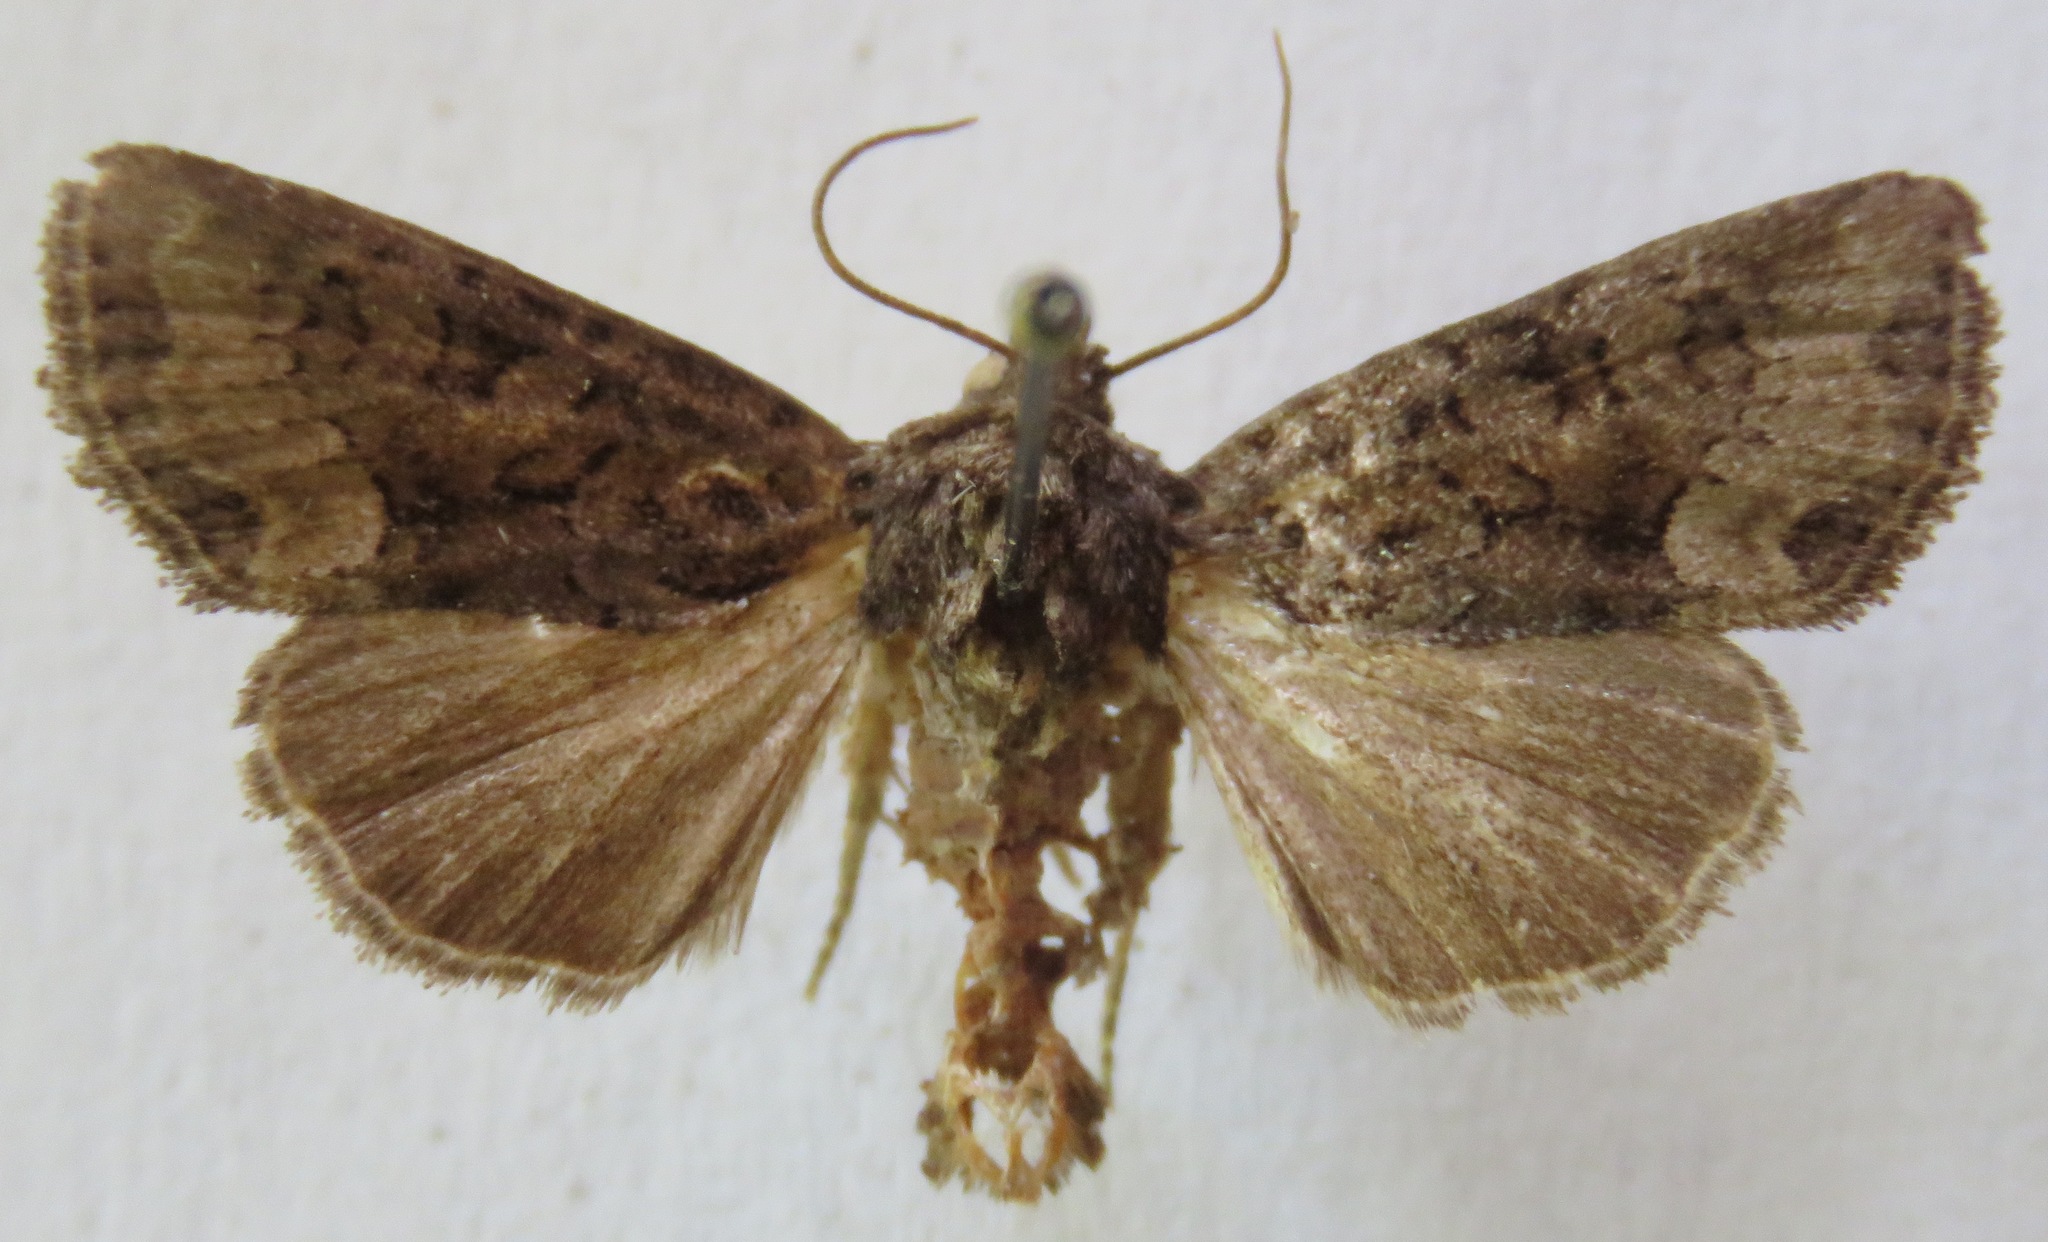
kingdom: Animalia
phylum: Arthropoda
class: Insecta
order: Lepidoptera
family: Noctuidae
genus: Oligia
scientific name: Oligia latruncula
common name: Tawny marbled minor
